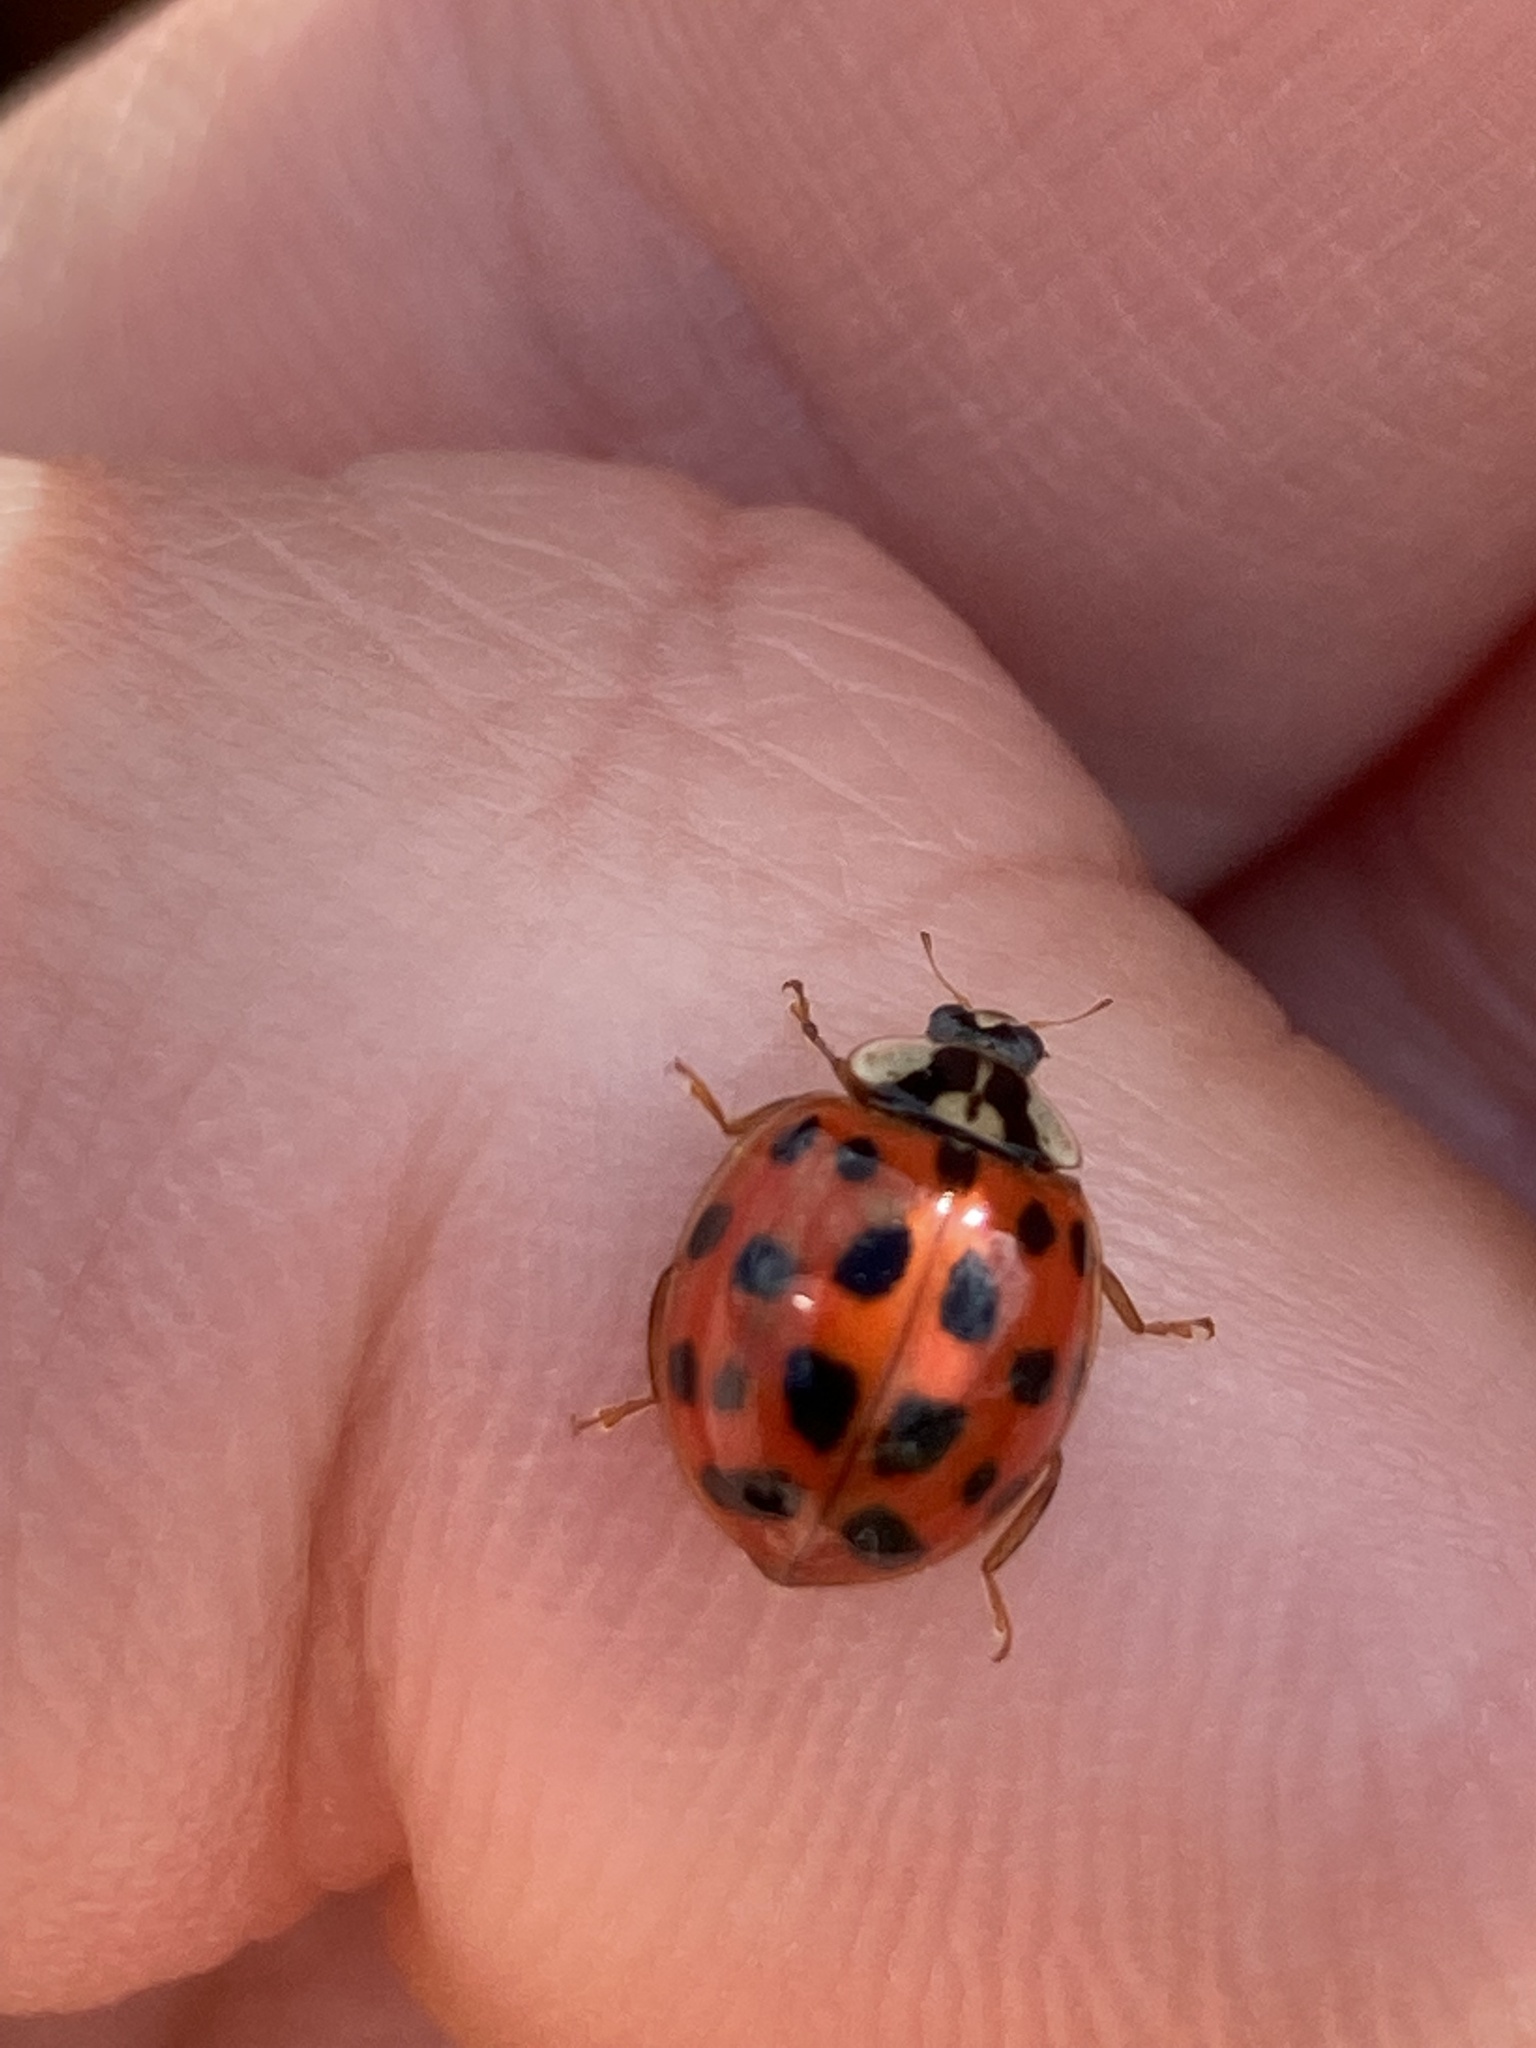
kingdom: Animalia
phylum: Arthropoda
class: Insecta
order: Coleoptera
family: Coccinellidae
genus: Harmonia
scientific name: Harmonia axyridis
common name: Harlequin ladybird
